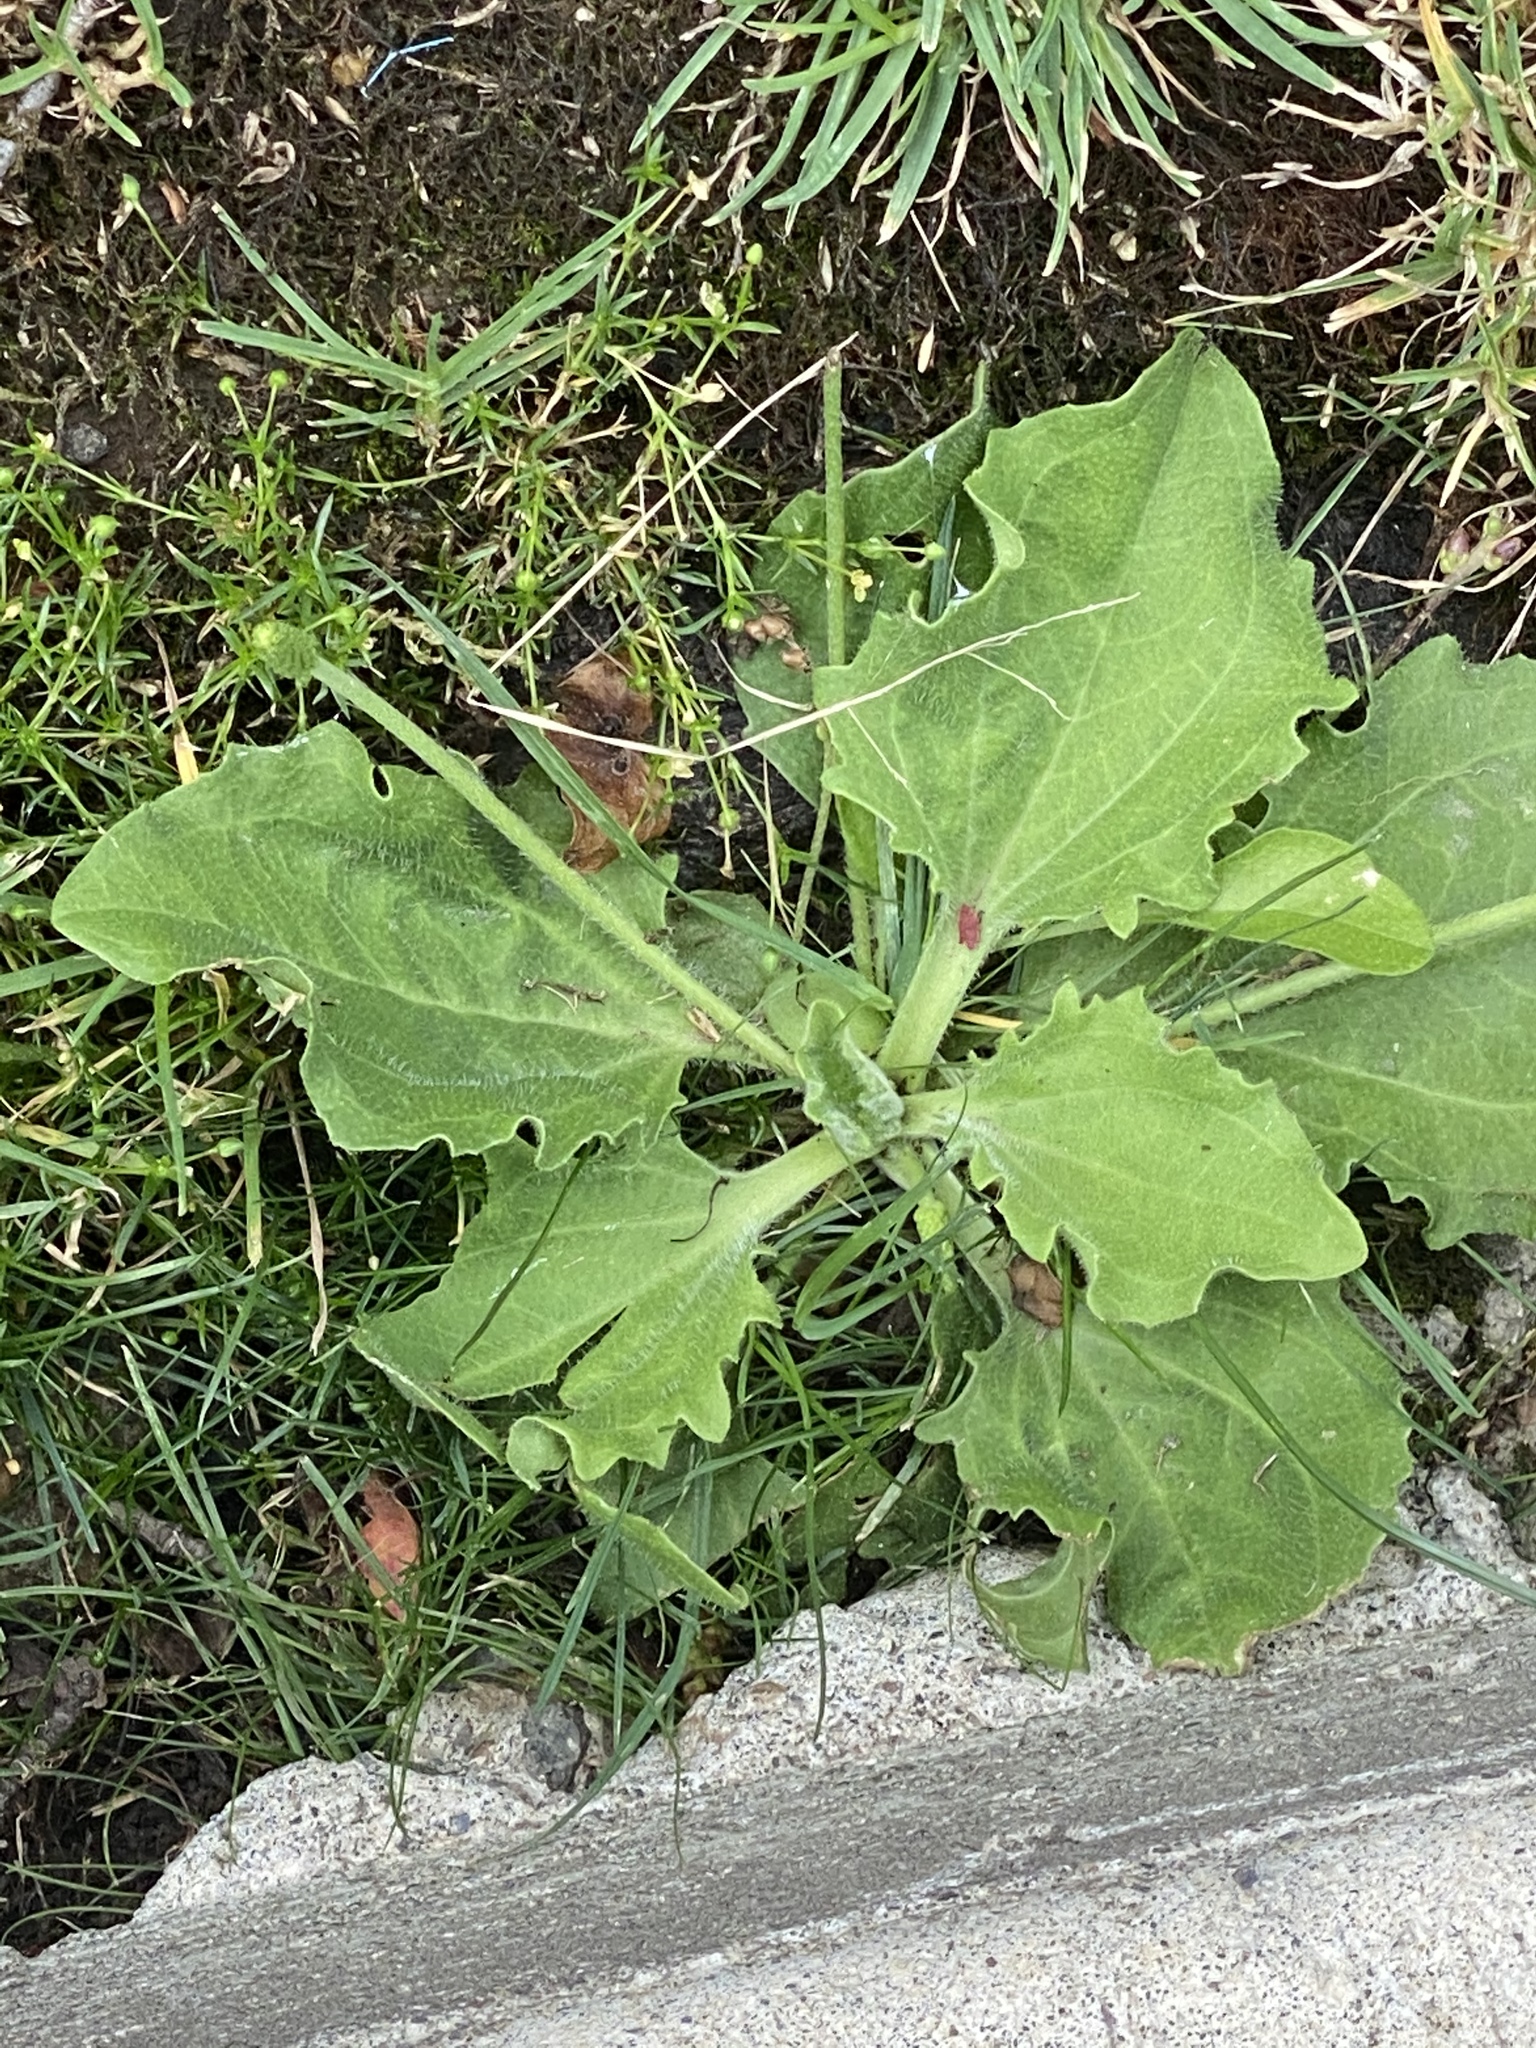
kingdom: Plantae
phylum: Tracheophyta
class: Magnoliopsida
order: Lamiales
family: Plantaginaceae
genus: Plantago
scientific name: Plantago major
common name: Common plantain
